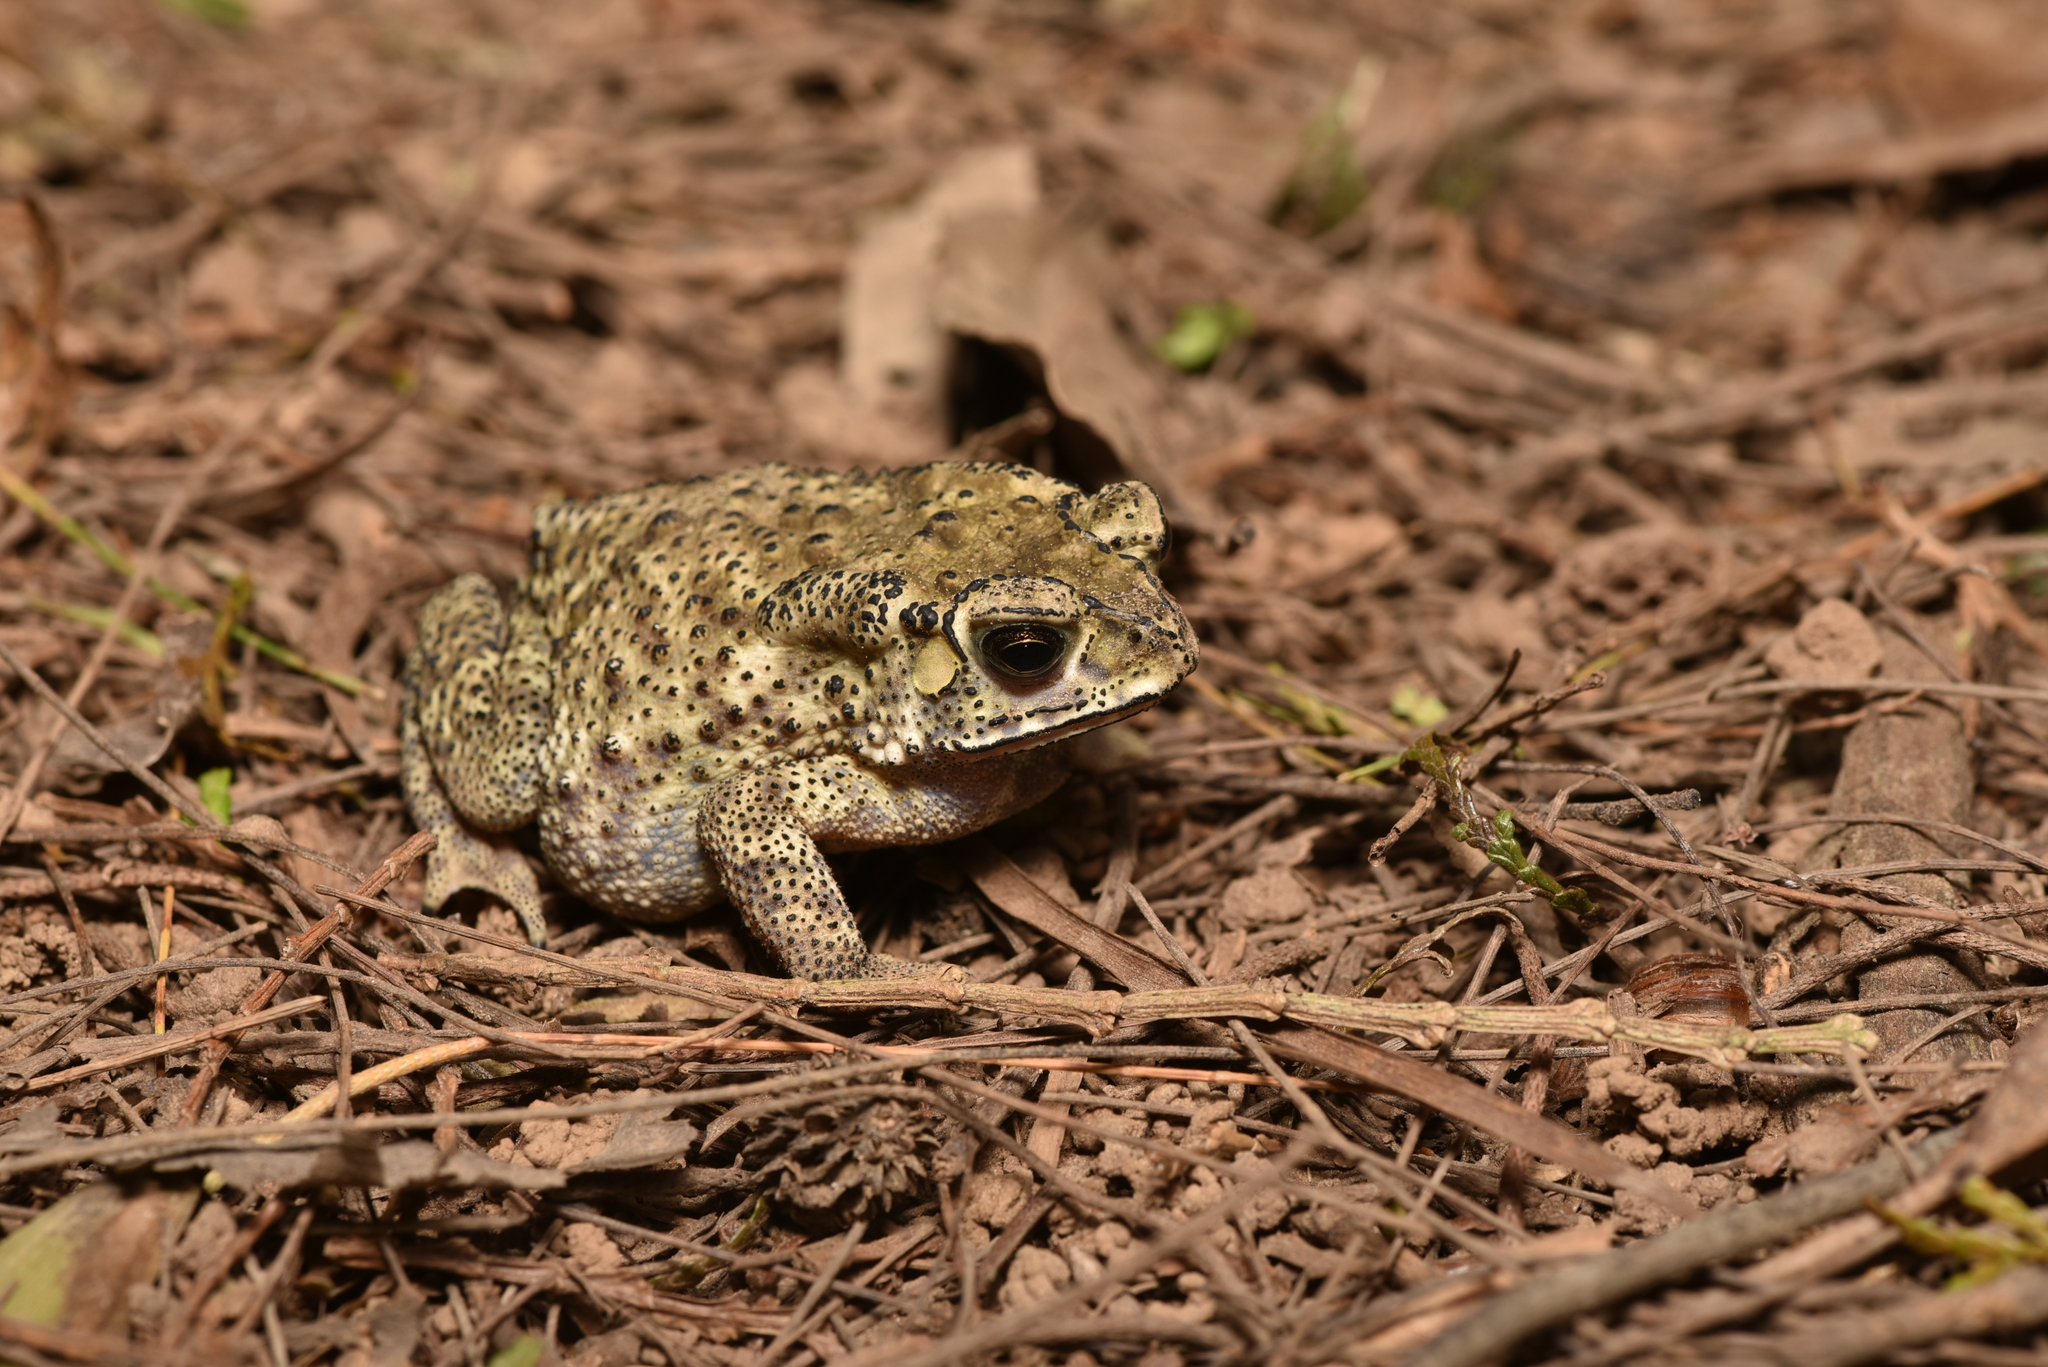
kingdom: Animalia
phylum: Chordata
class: Amphibia
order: Anura
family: Bufonidae
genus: Duttaphrynus
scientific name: Duttaphrynus melanostictus
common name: Common sunda toad
